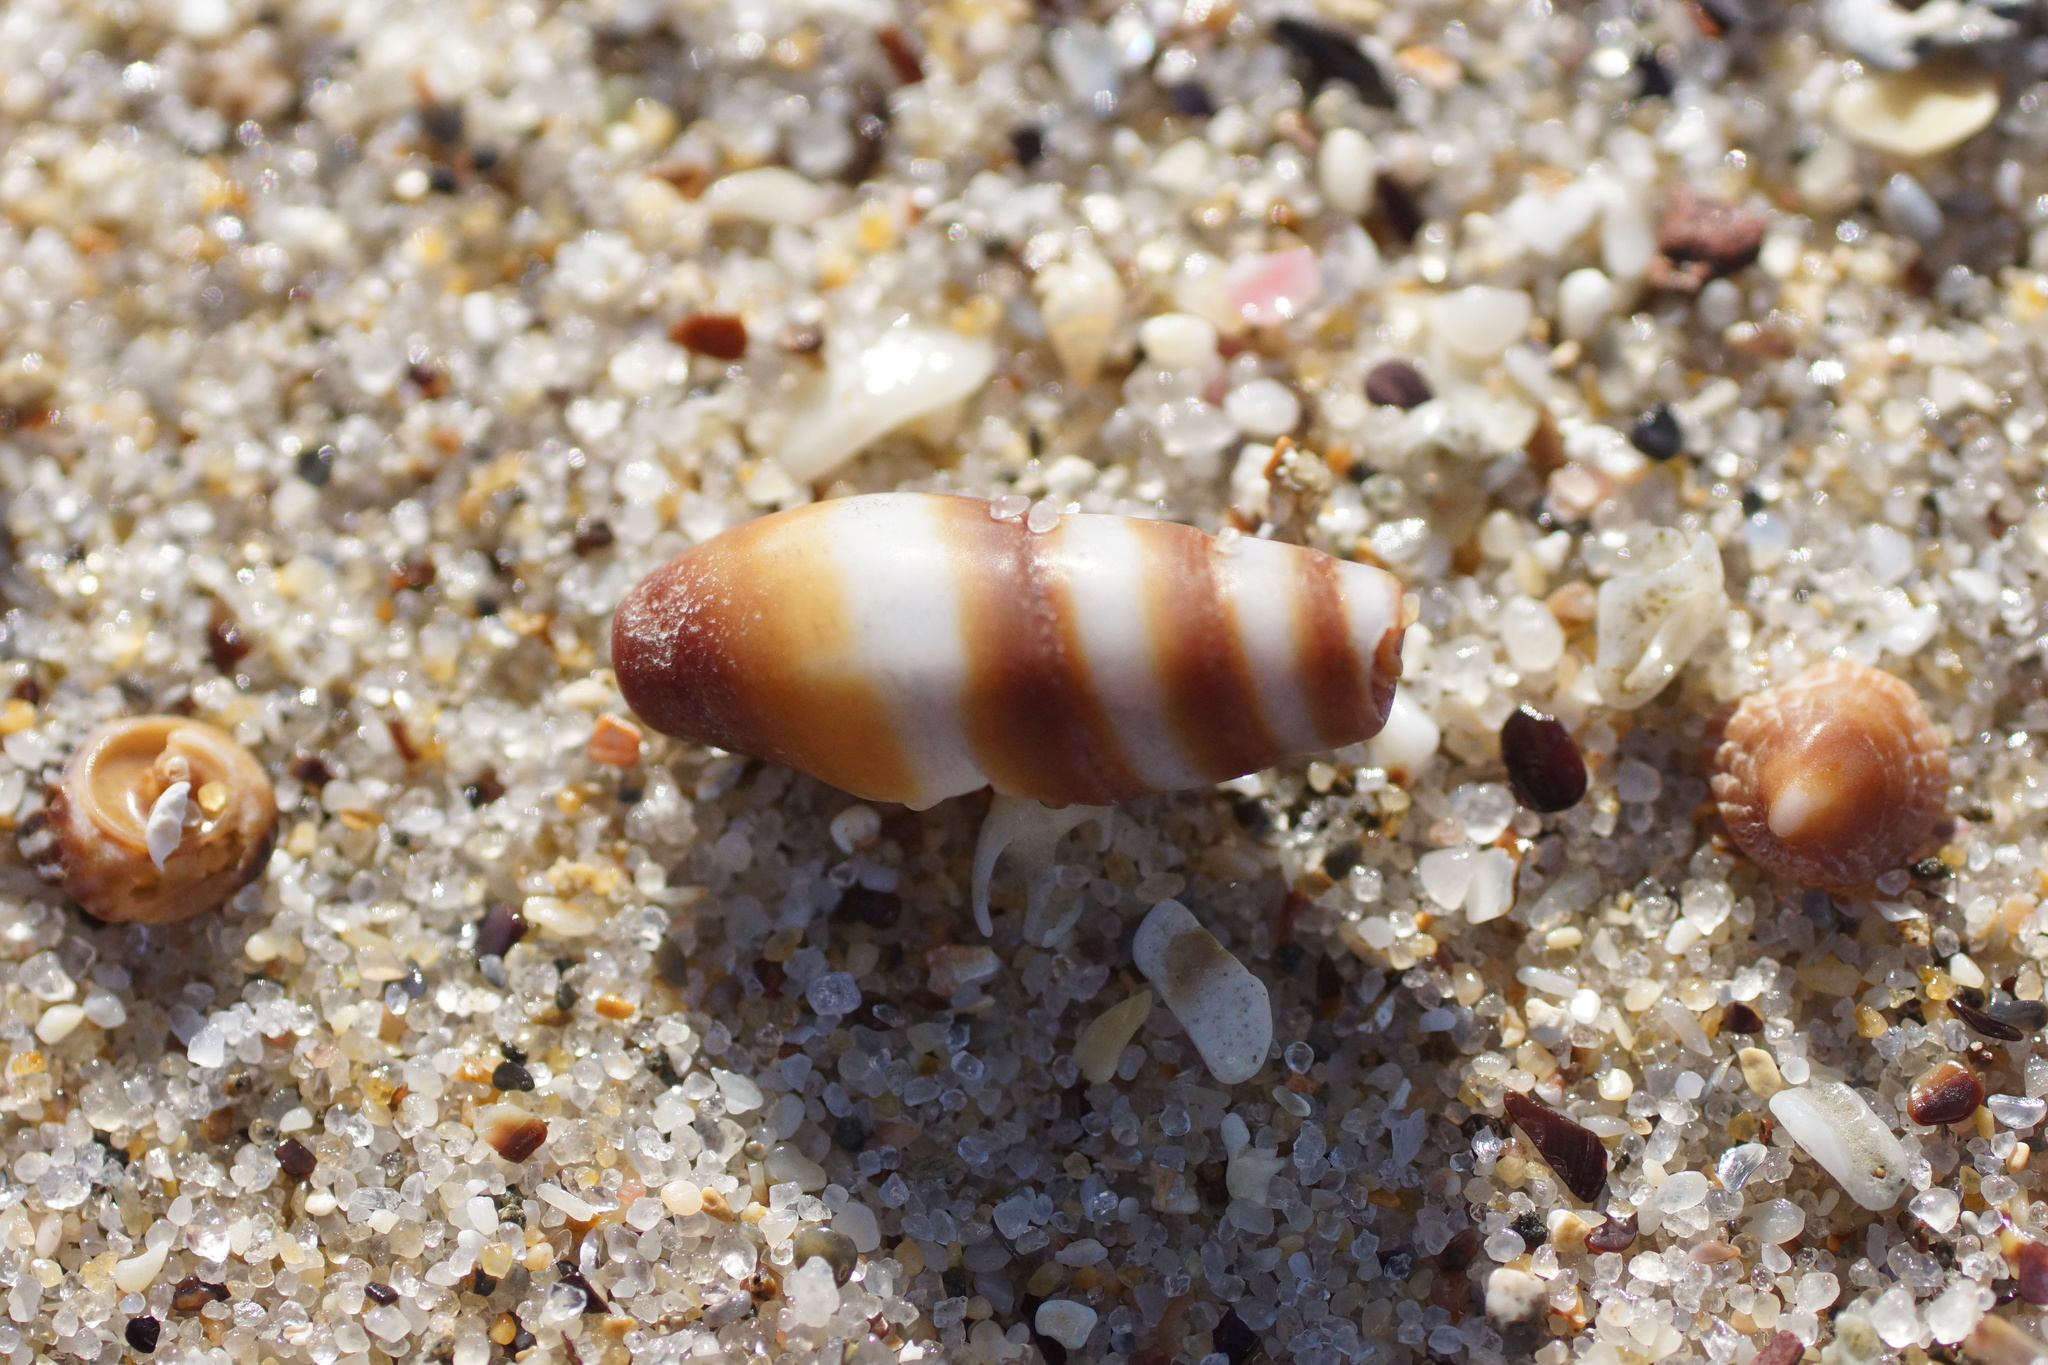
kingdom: Animalia
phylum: Mollusca
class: Gastropoda
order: Neogastropoda
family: Costellariidae
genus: Turriplicifer
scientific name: Turriplicifer australis
